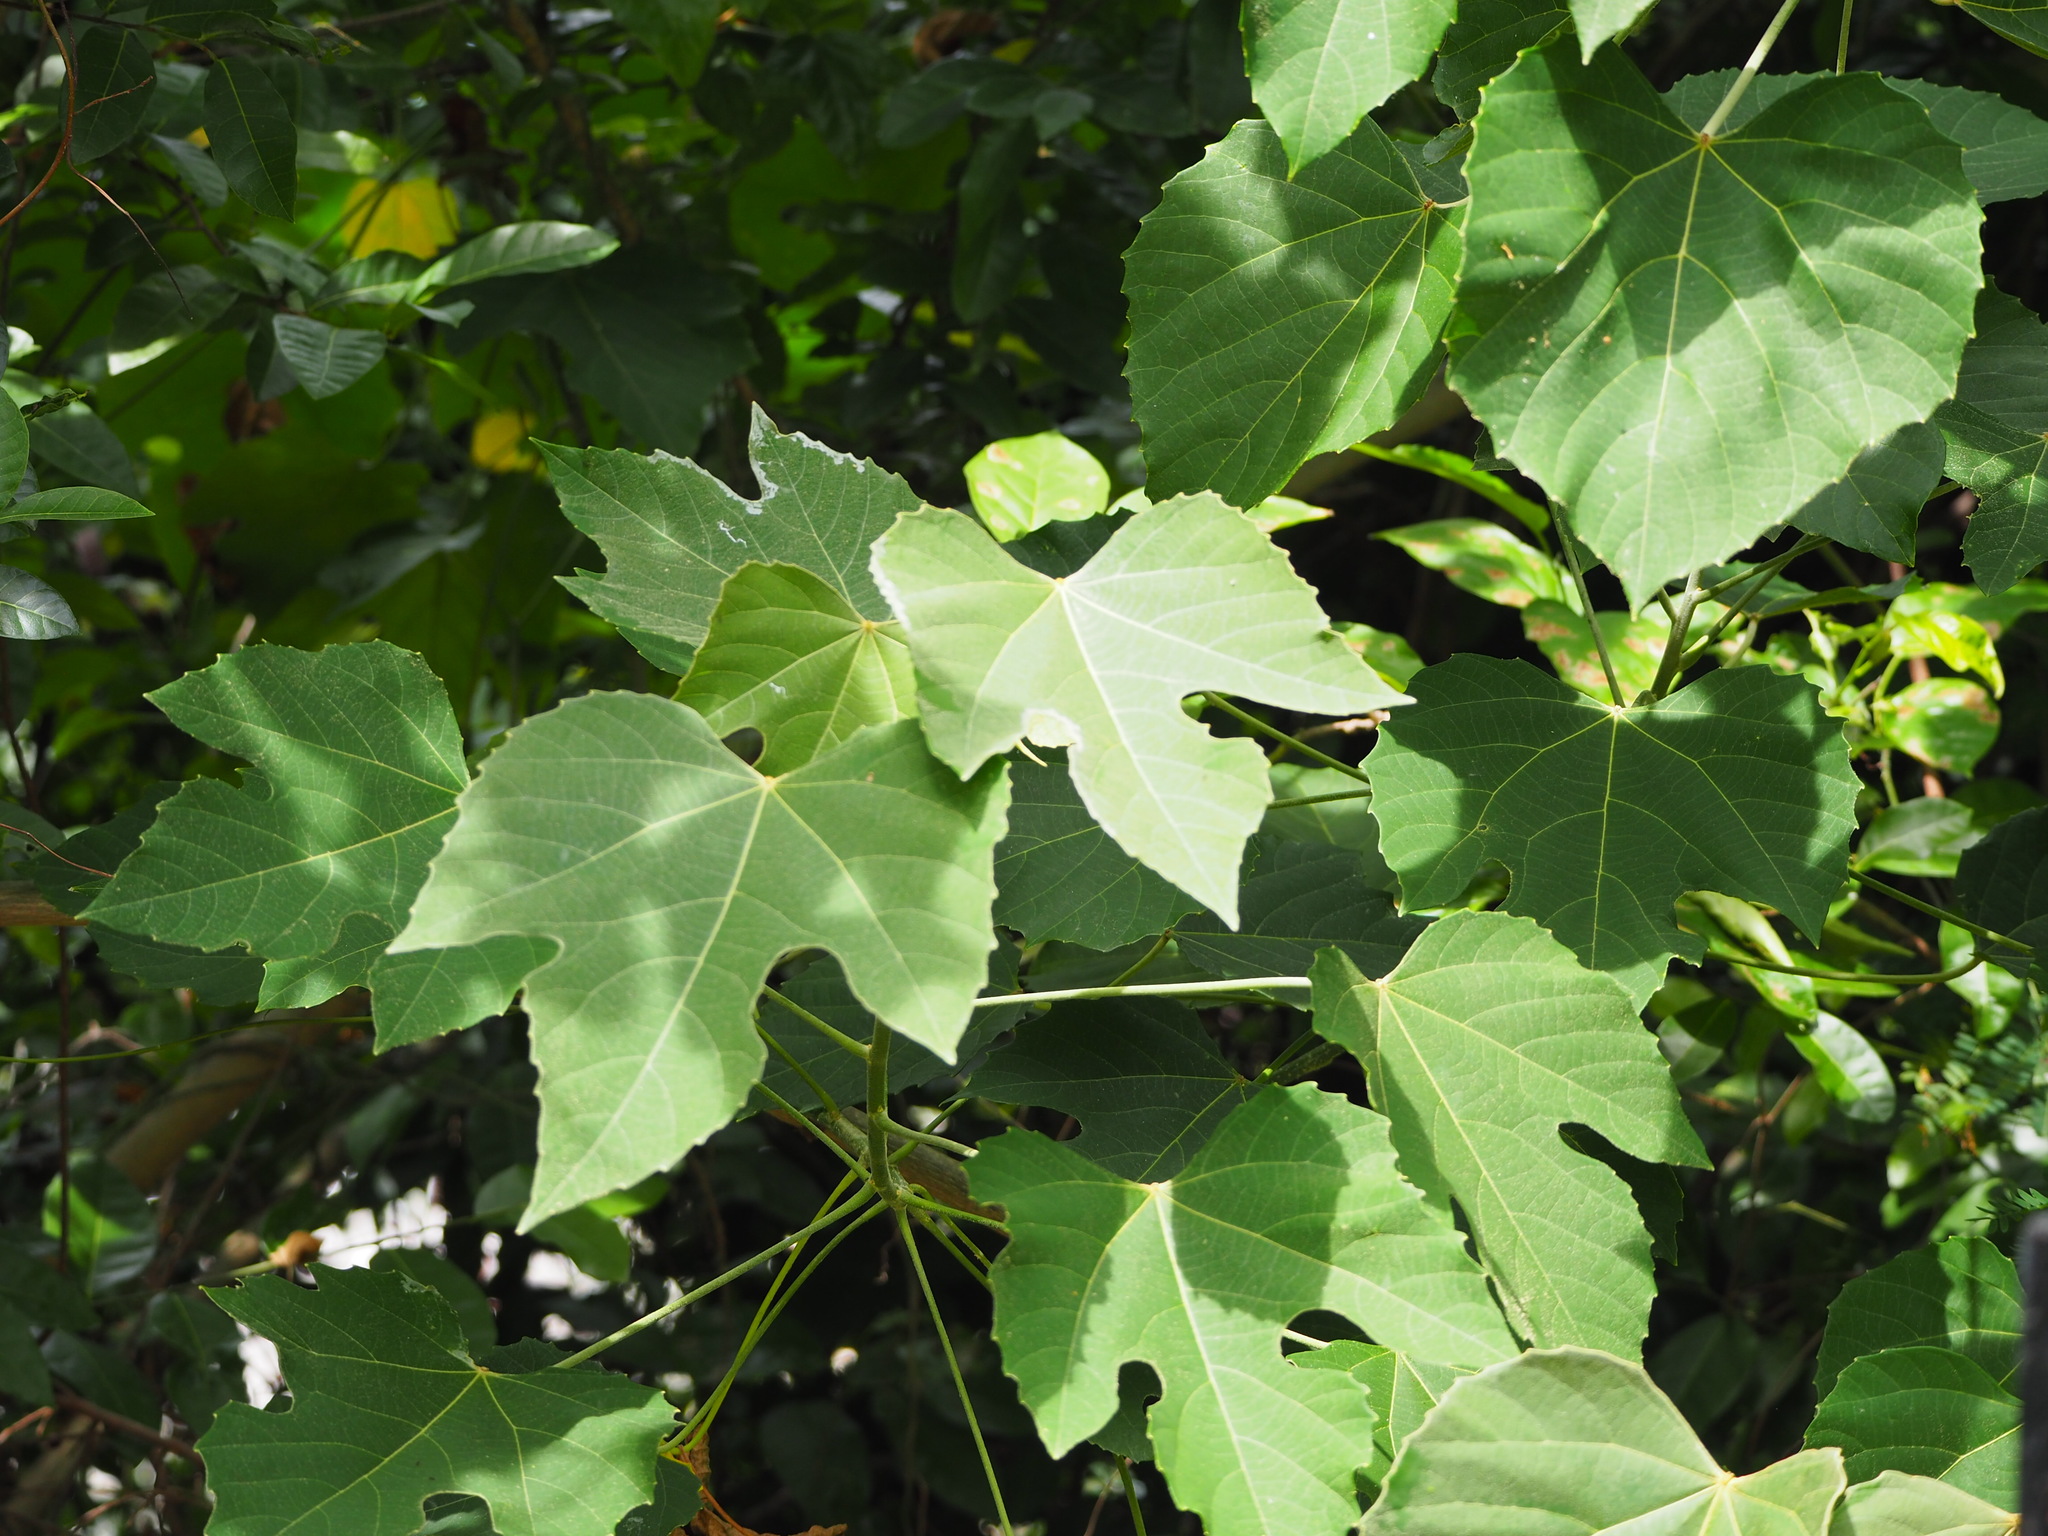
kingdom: Plantae
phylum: Tracheophyta
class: Magnoliopsida
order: Malpighiales
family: Euphorbiaceae
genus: Melanolepis
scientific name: Melanolepis multiglandulosa
